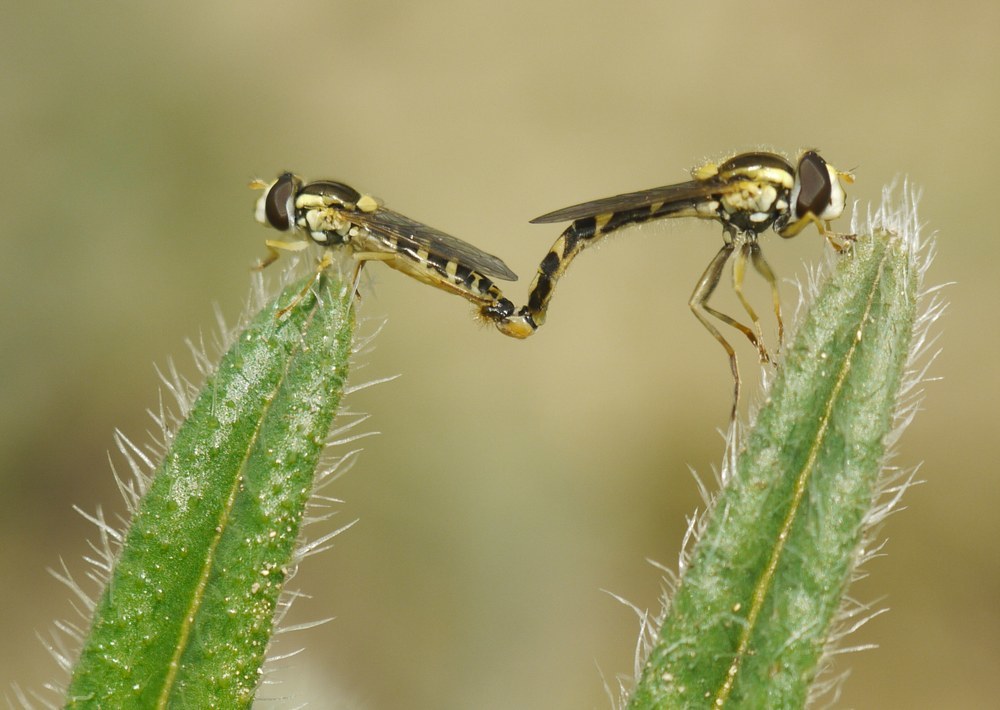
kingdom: Animalia
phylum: Arthropoda
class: Insecta
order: Diptera
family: Syrphidae
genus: Sphaerophoria
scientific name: Sphaerophoria scripta
